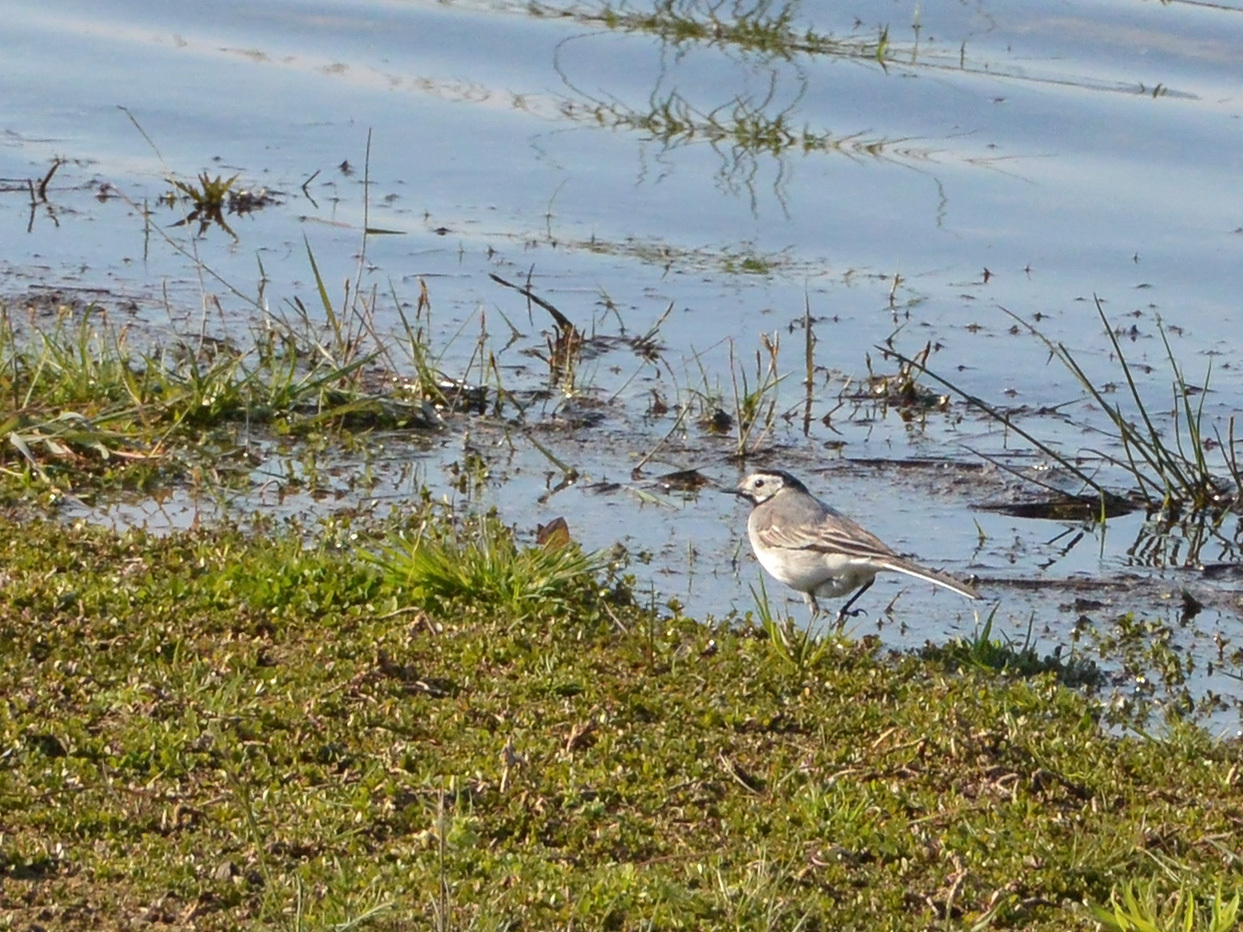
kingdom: Animalia
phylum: Chordata
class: Aves
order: Passeriformes
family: Motacillidae
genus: Motacilla
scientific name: Motacilla alba
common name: White wagtail
